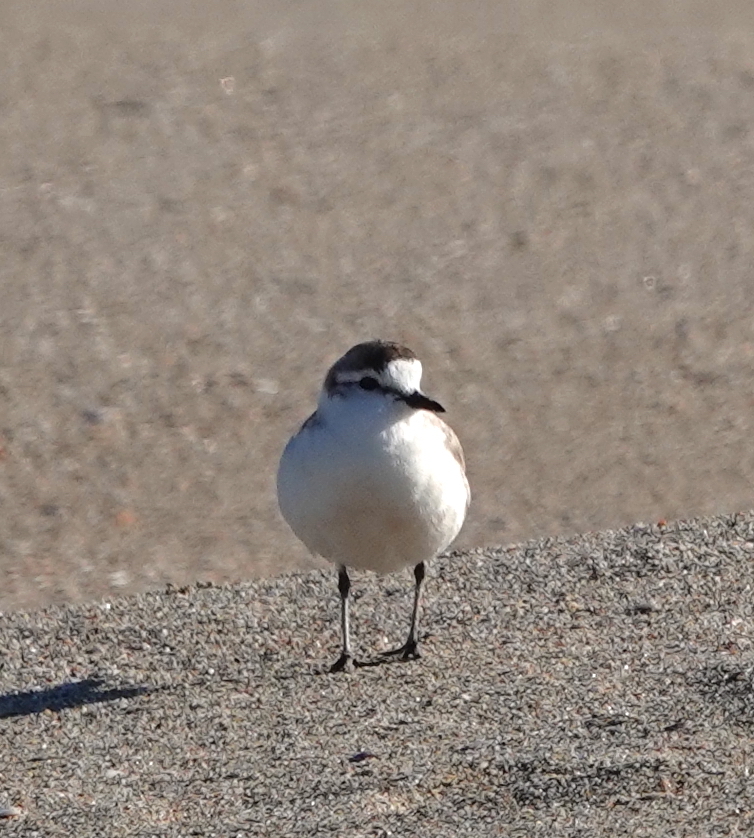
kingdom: Animalia
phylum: Chordata
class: Aves
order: Charadriiformes
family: Charadriidae
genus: Anarhynchus
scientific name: Anarhynchus
